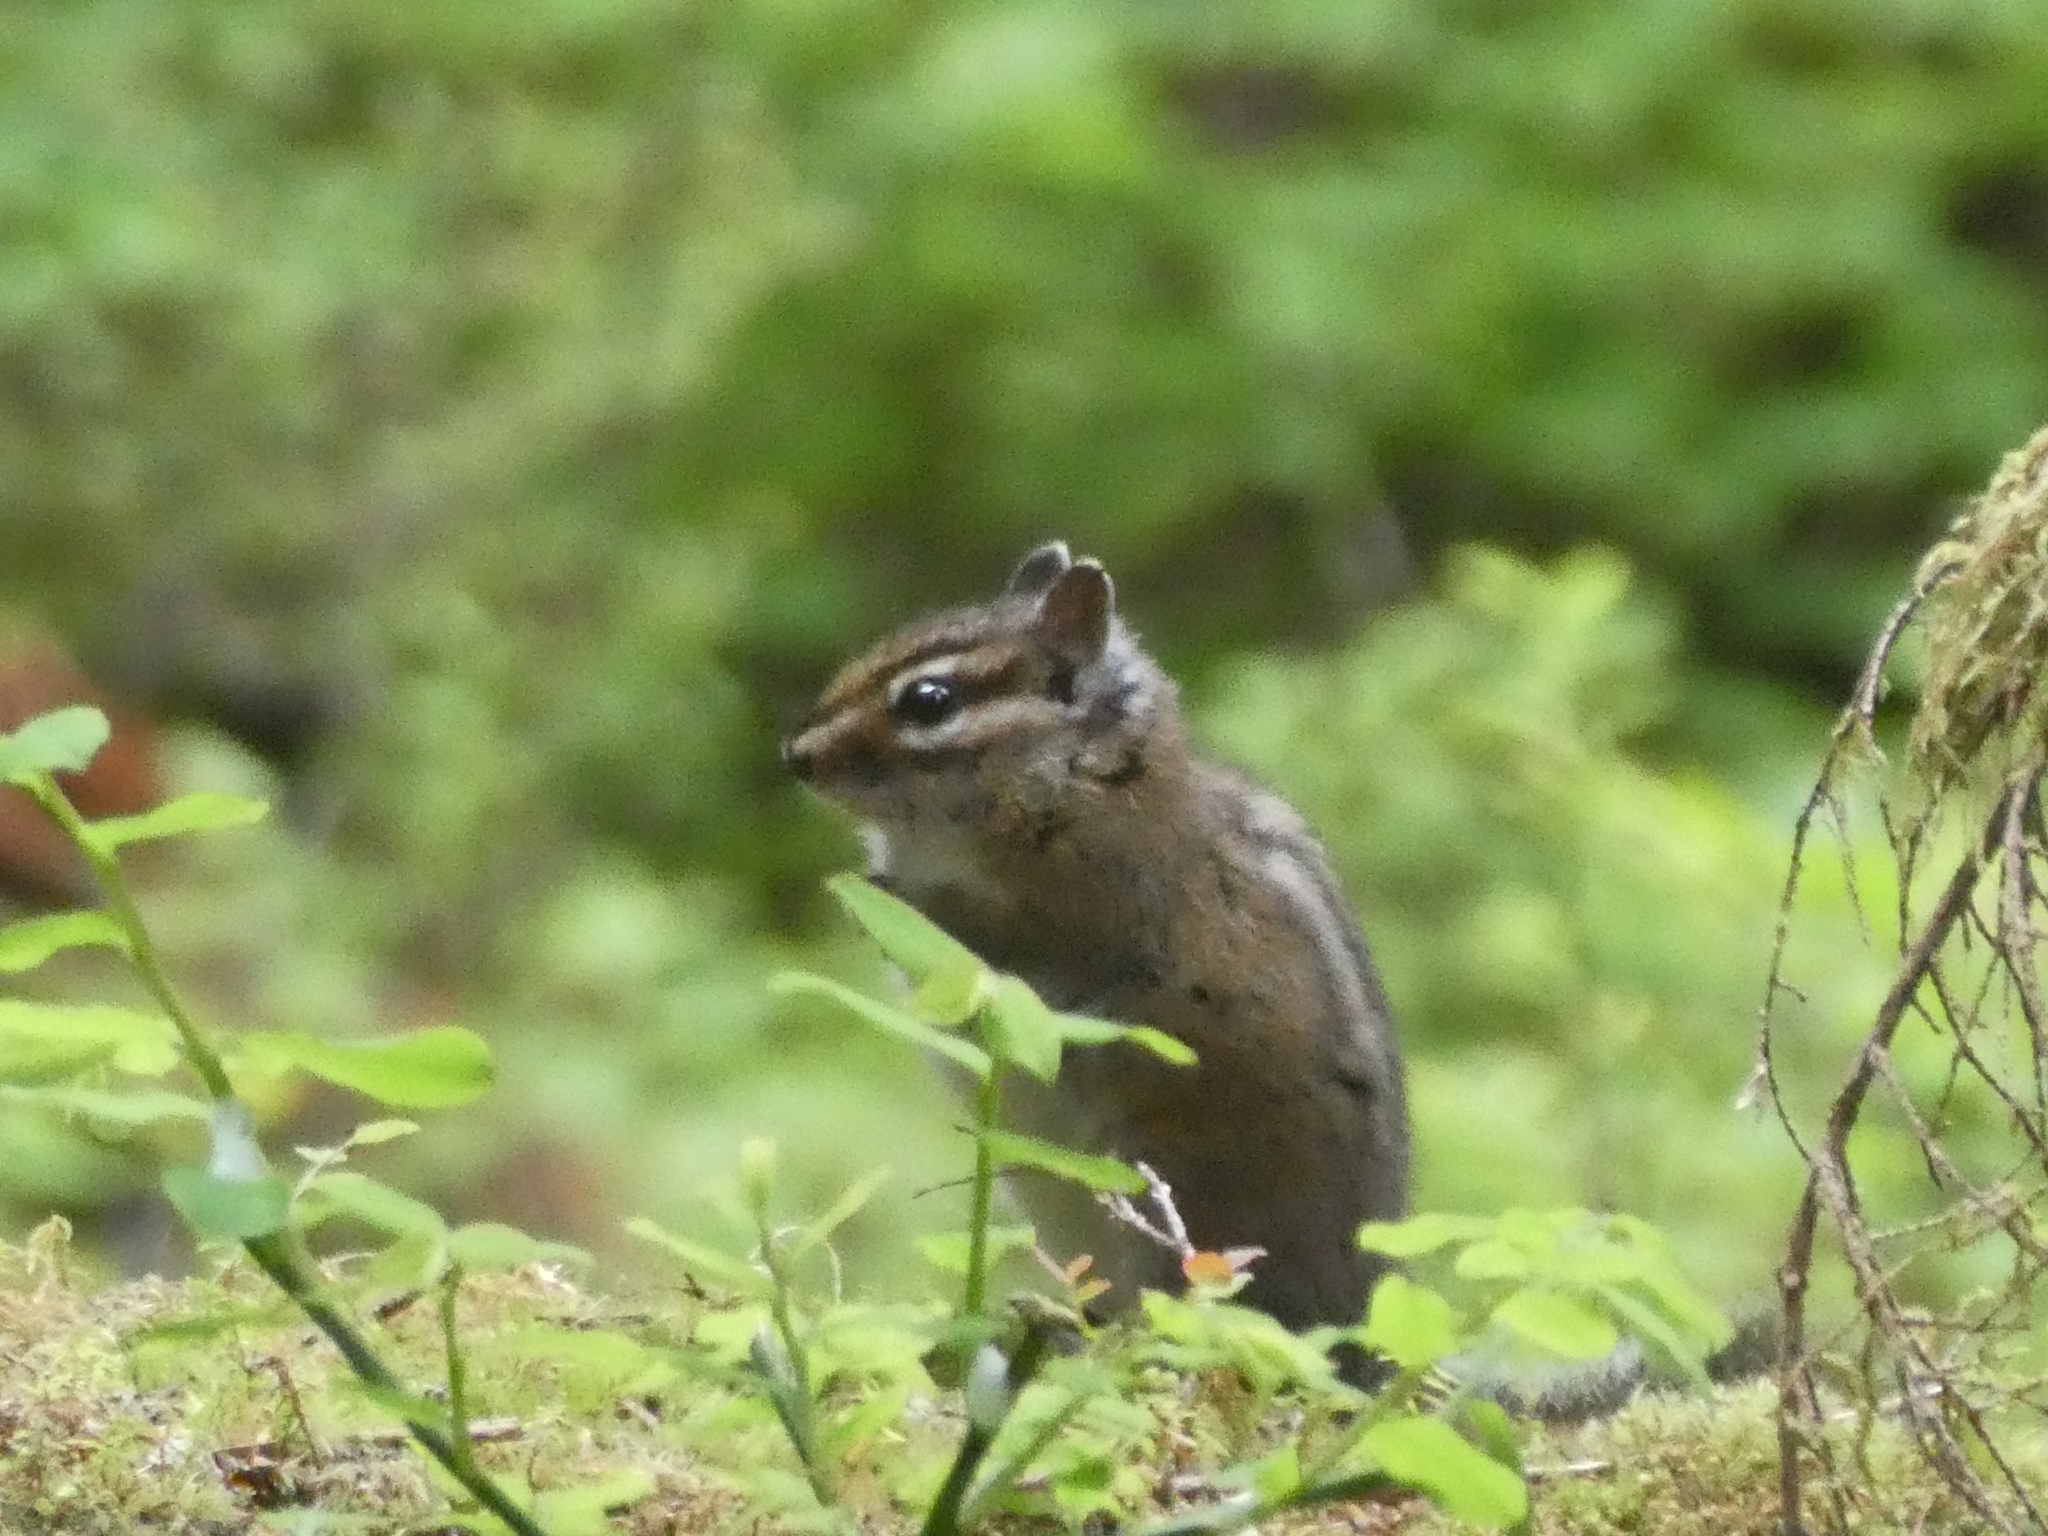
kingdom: Animalia
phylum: Chordata
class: Mammalia
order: Rodentia
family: Sciuridae
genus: Tamias
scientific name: Tamias townsendii
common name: Townsend's chipmunk
